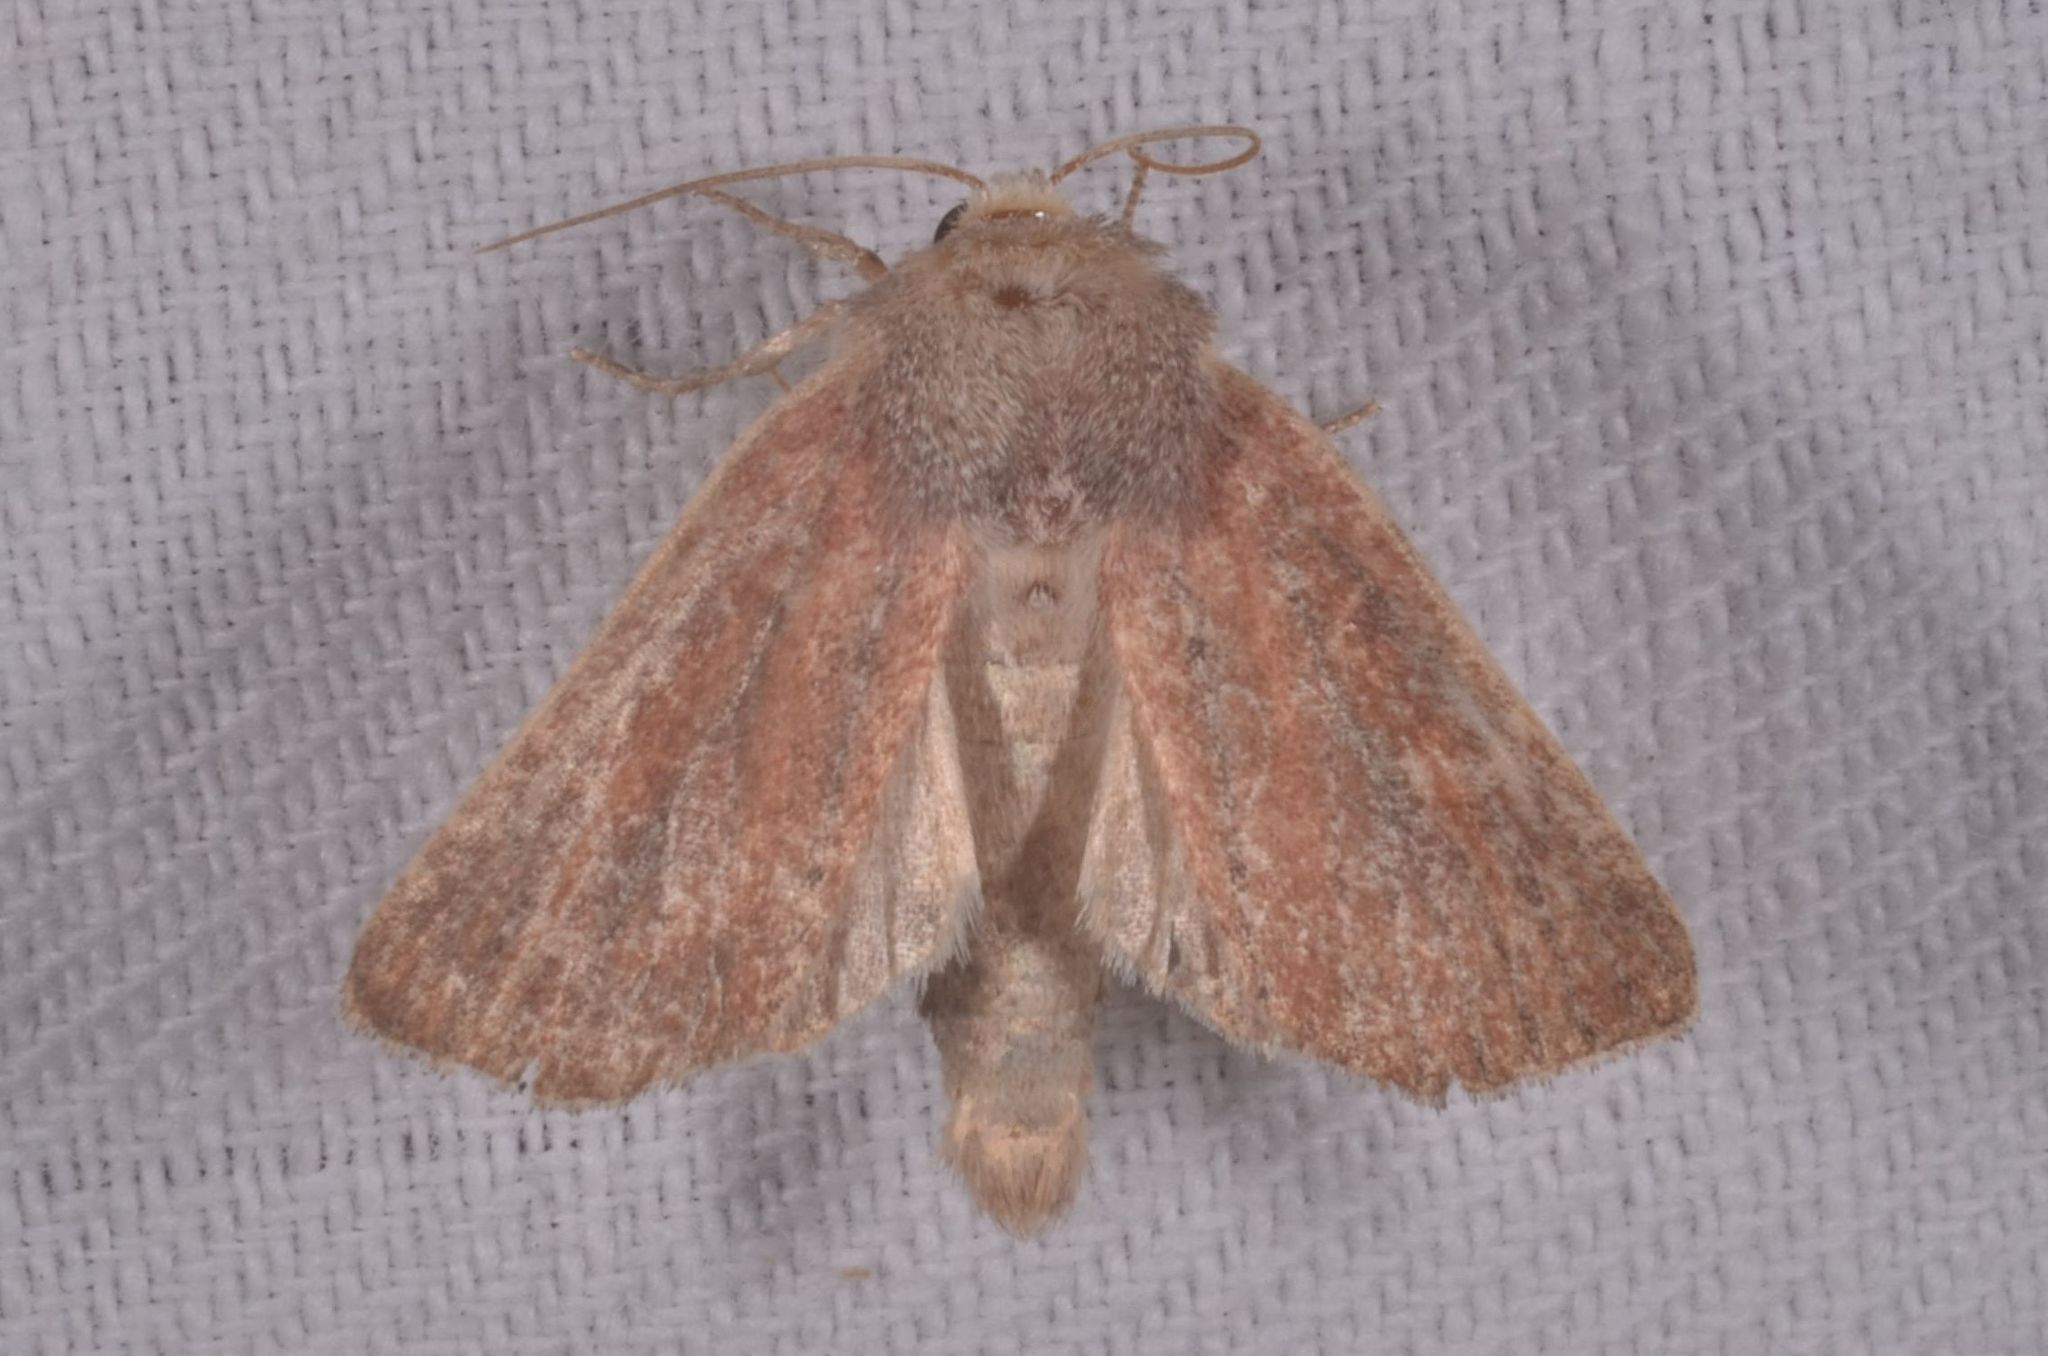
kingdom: Animalia
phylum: Arthropoda
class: Insecta
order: Lepidoptera
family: Noctuidae
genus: Photedes
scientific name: Photedes fluxa
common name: Mere wainscot
